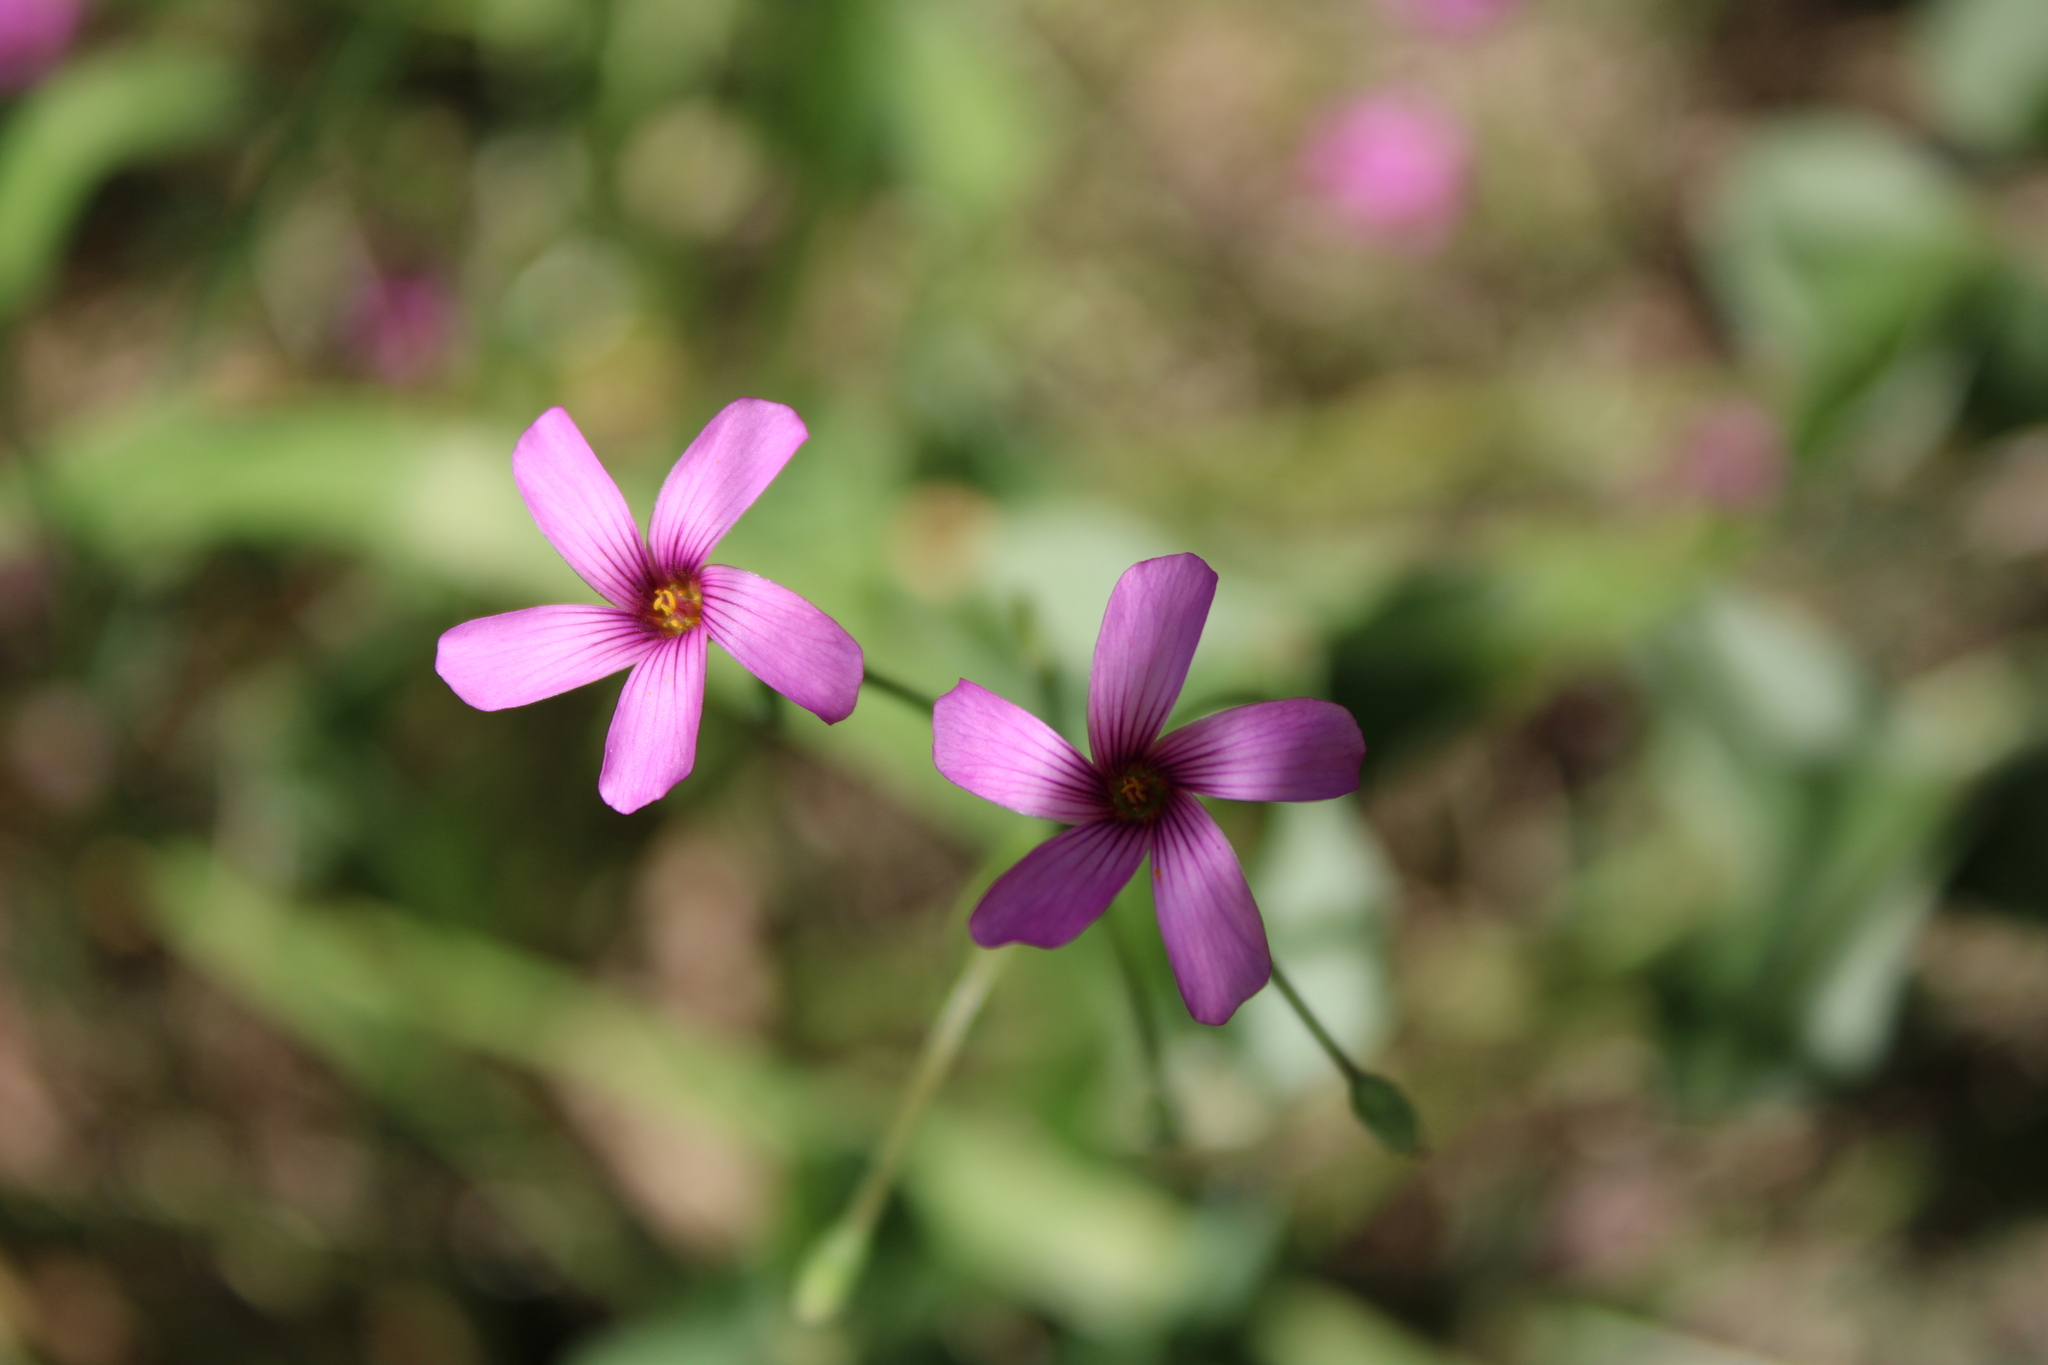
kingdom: Plantae
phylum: Tracheophyta
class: Magnoliopsida
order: Oxalidales
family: Oxalidaceae
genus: Oxalis
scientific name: Oxalis articulata
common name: Pink-sorrel
